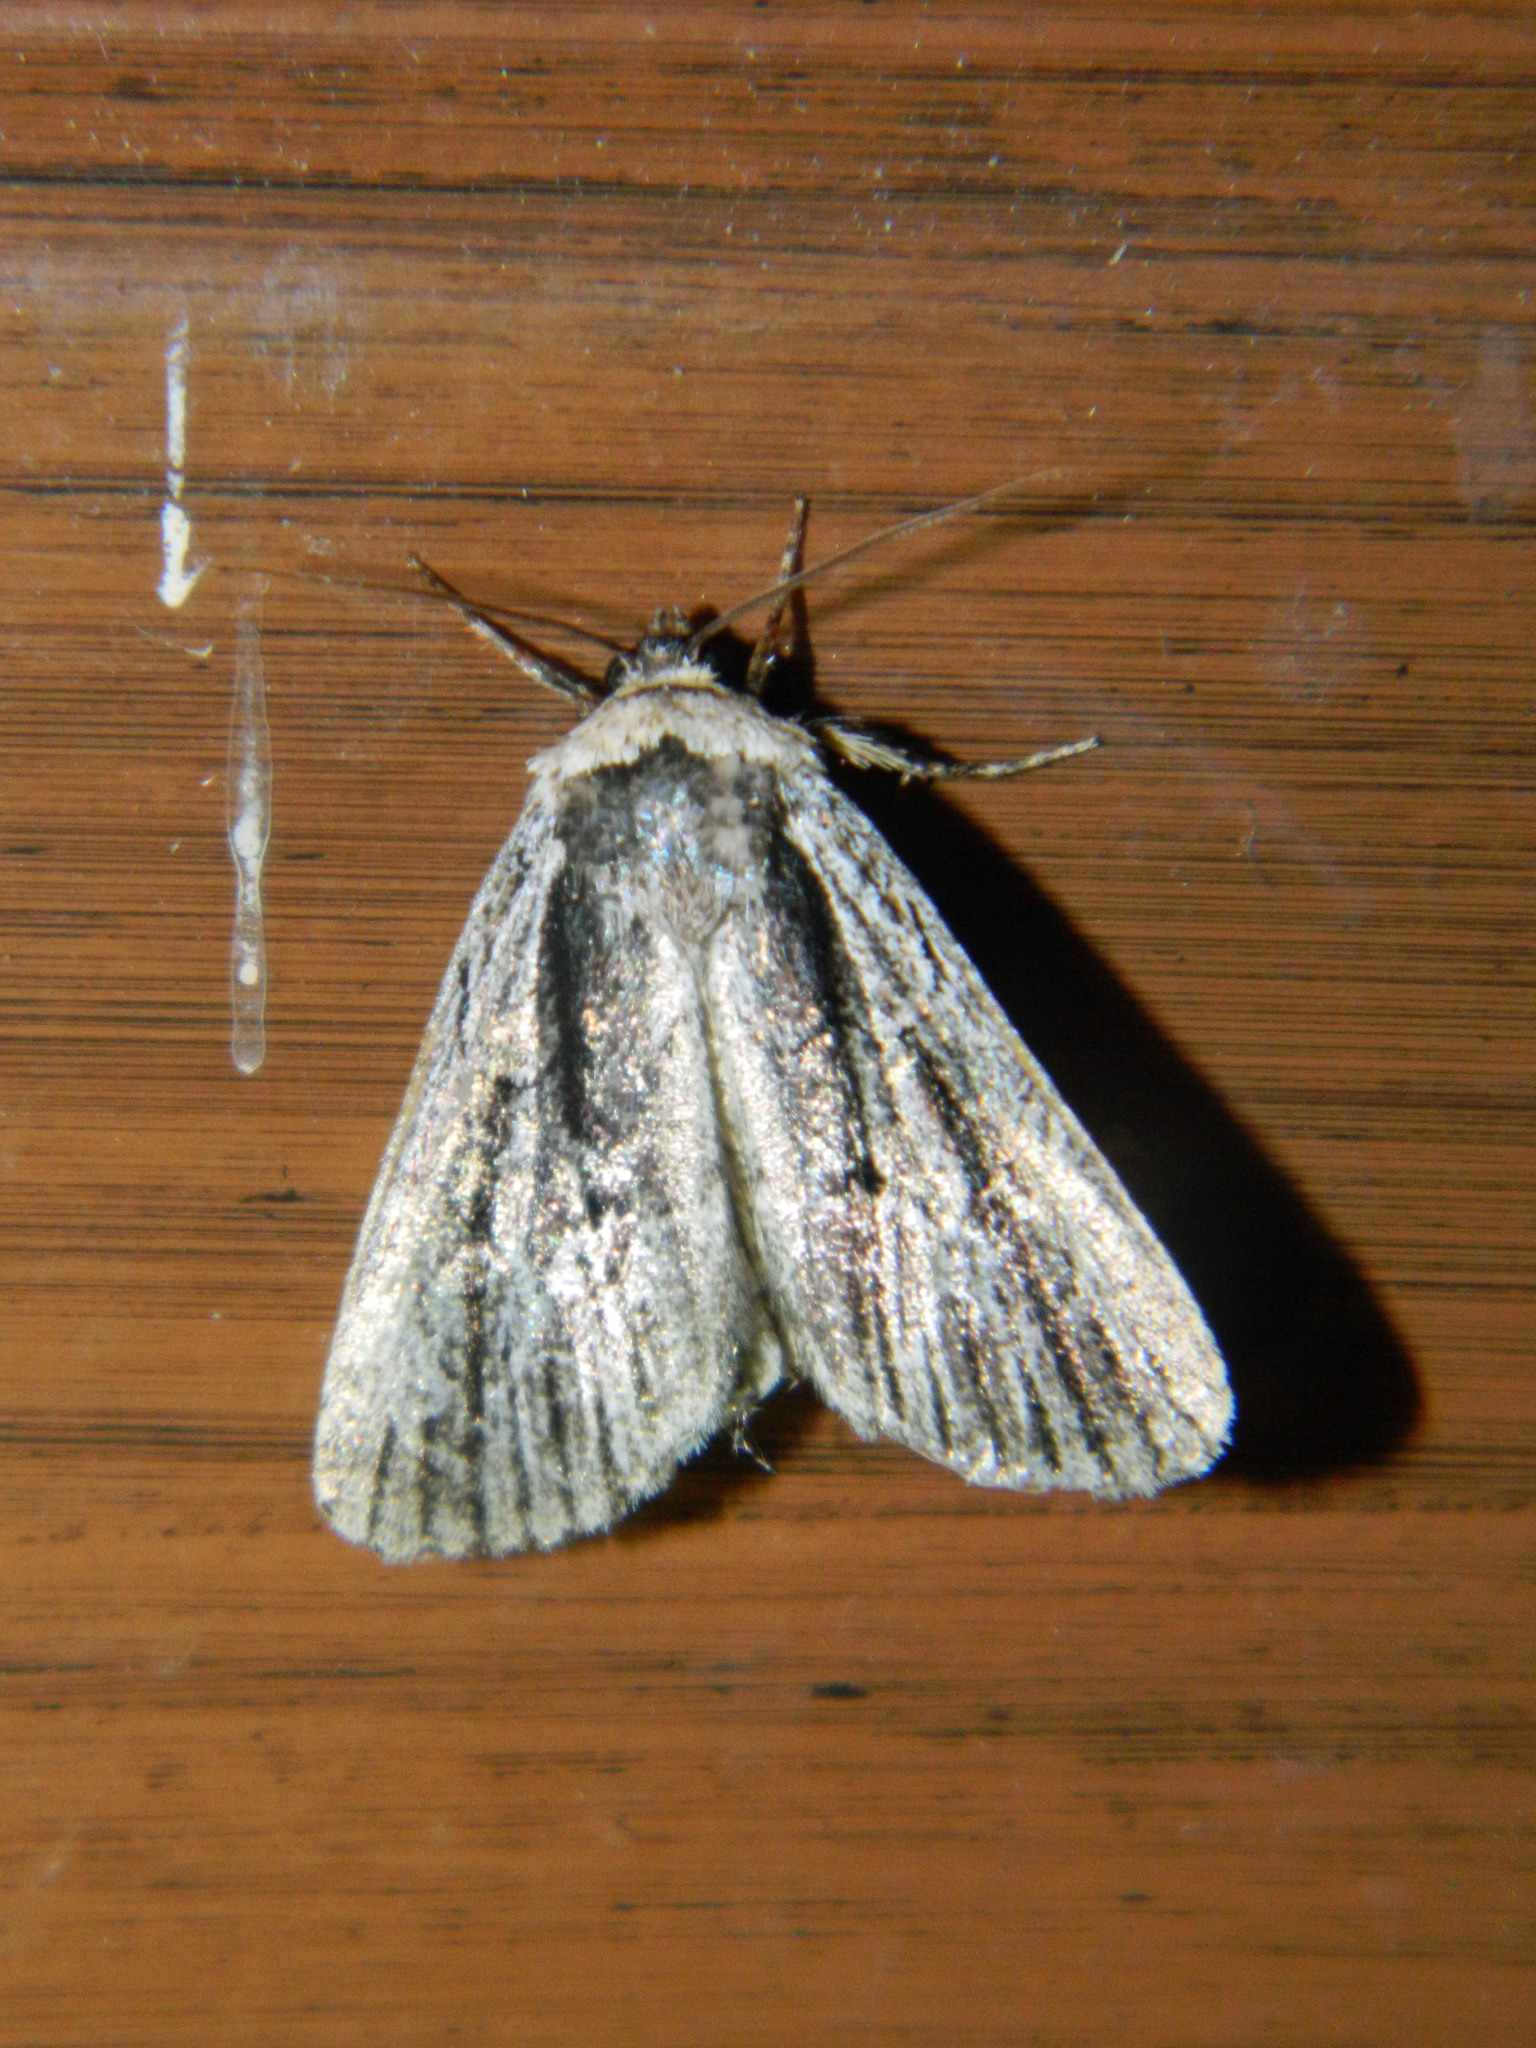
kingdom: Animalia
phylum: Arthropoda
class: Insecta
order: Lepidoptera
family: Noctuidae
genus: Sympistis
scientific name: Sympistis badistriga
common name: Brown-lined sallow moth
